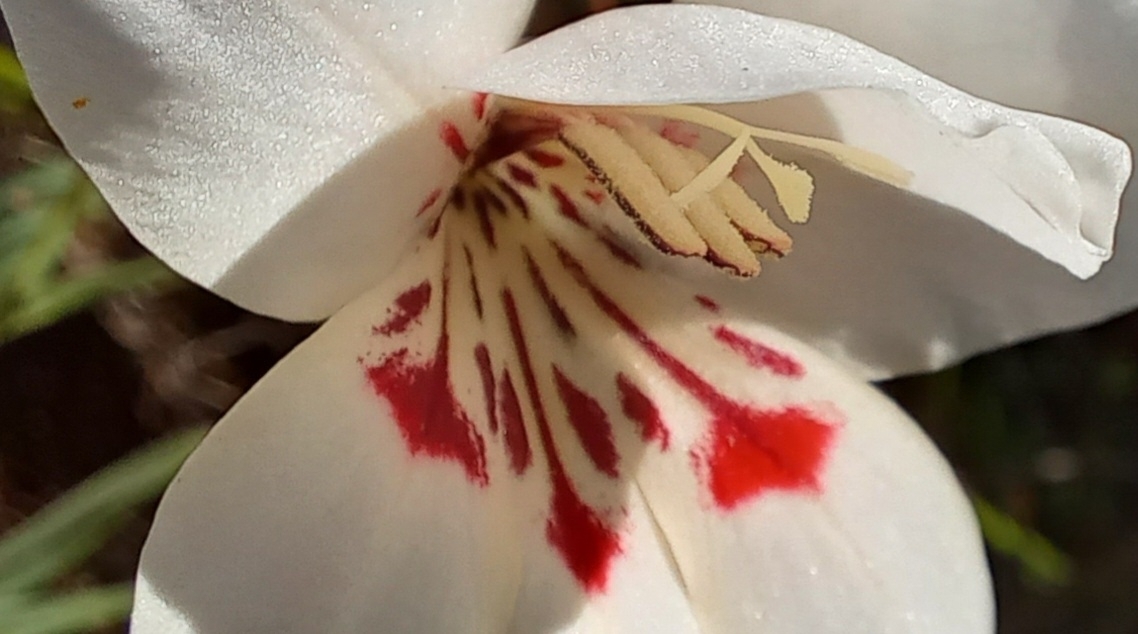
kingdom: Plantae
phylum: Tracheophyta
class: Liliopsida
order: Asparagales
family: Iridaceae
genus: Gladiolus
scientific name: Gladiolus debilis
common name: Painted-lady
